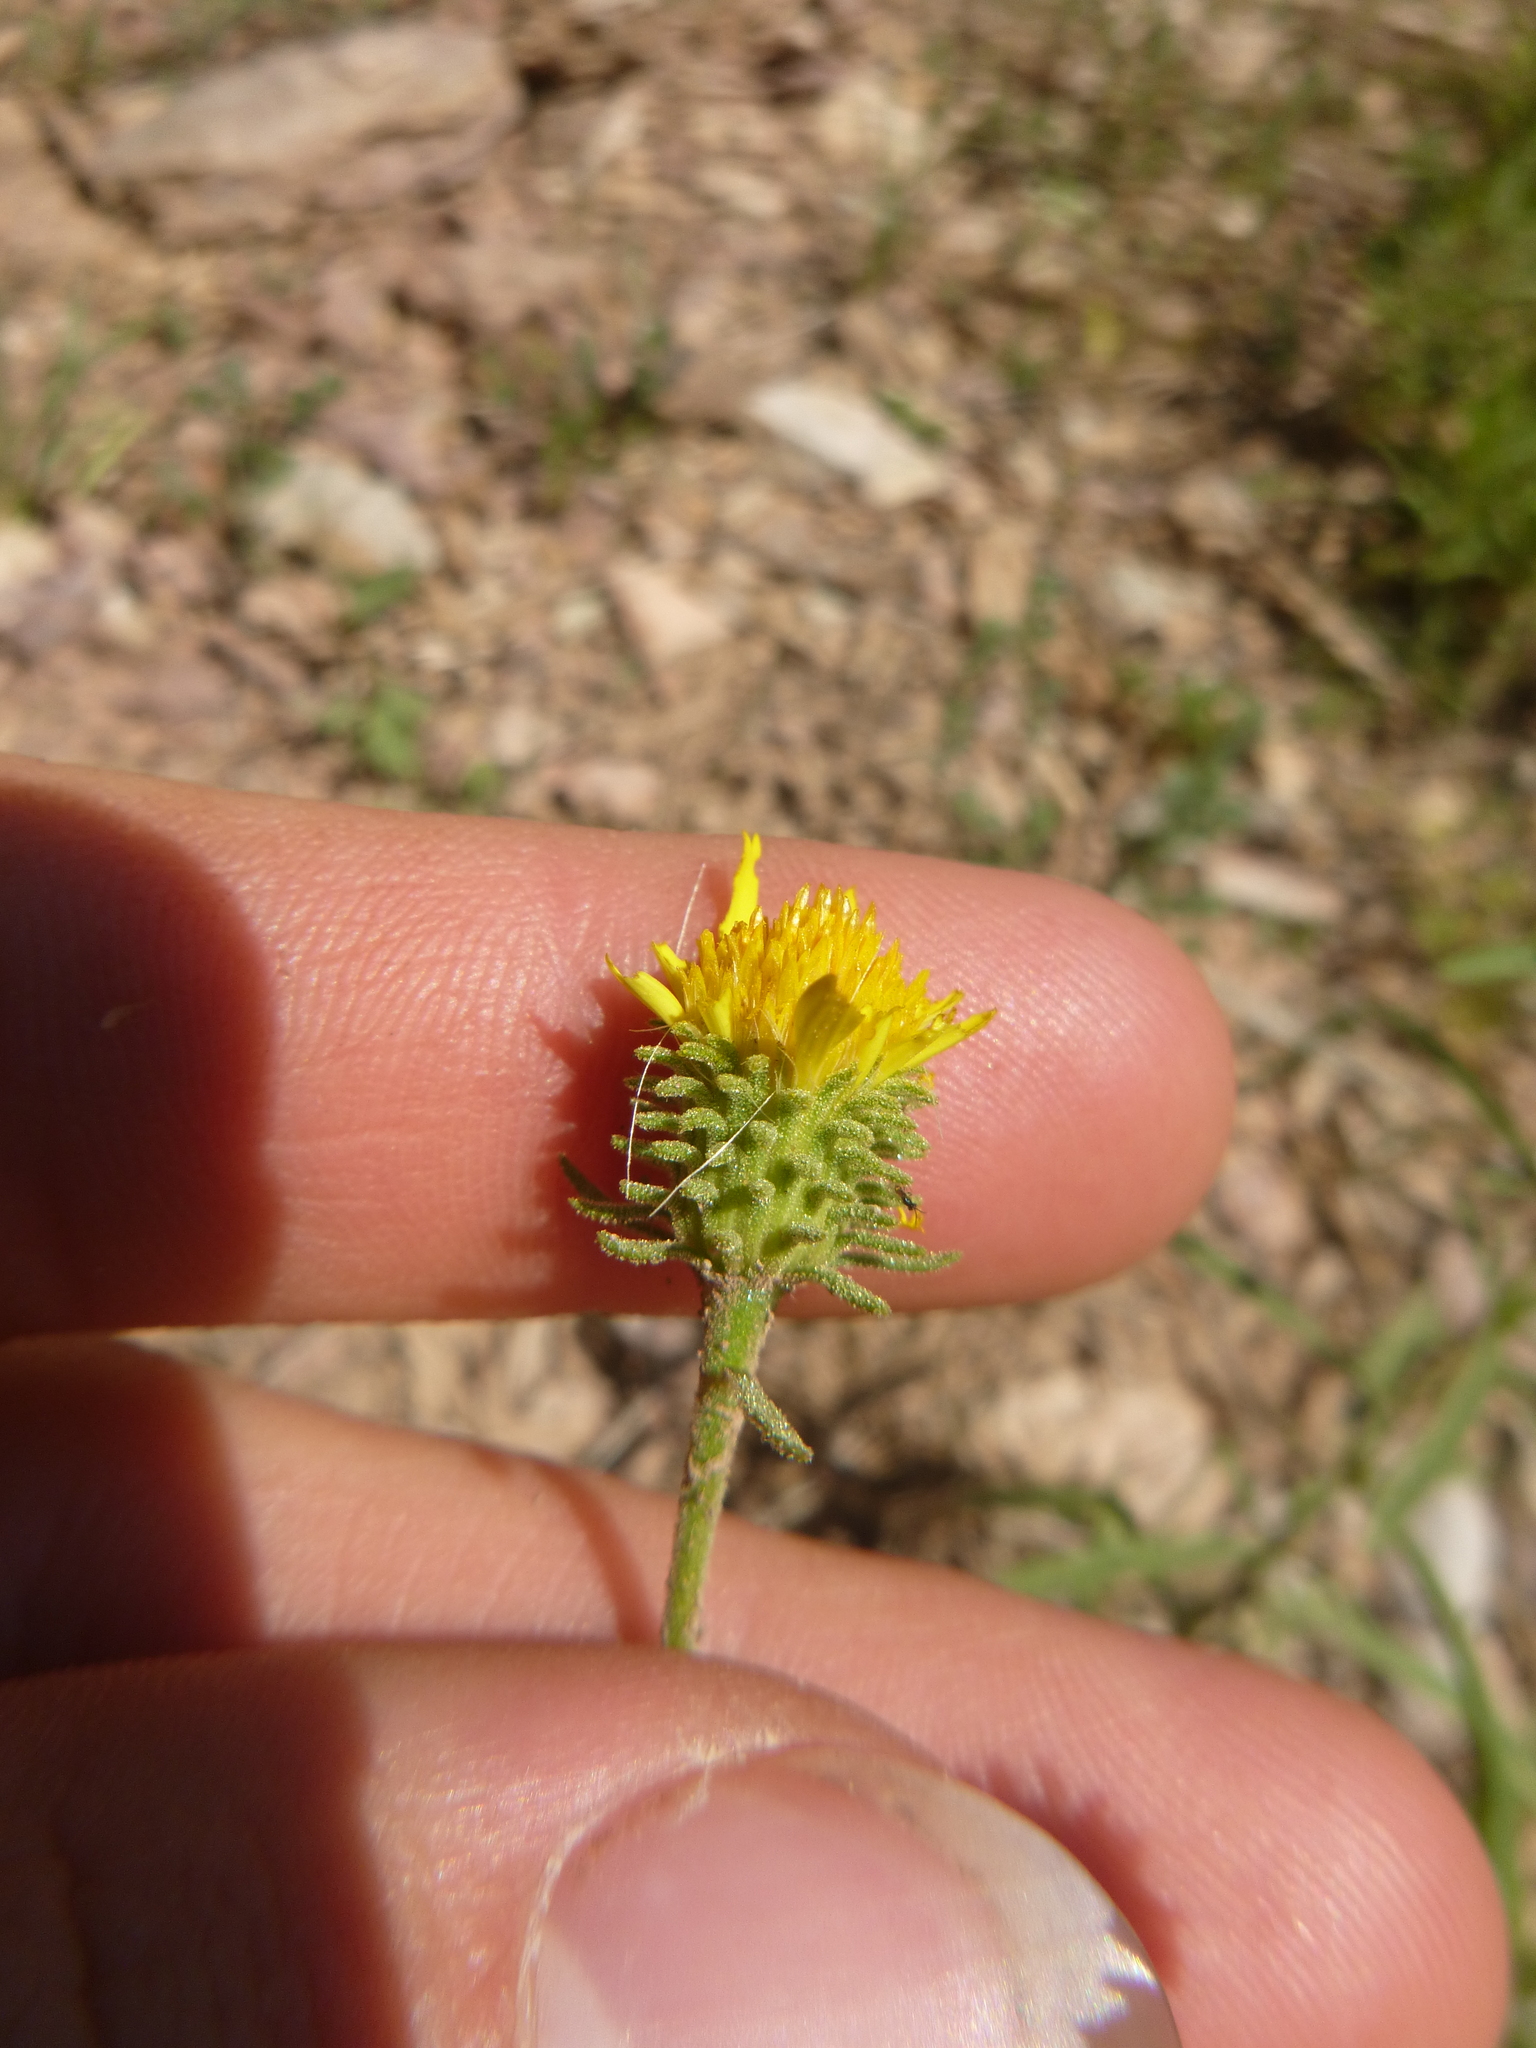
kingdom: Plantae
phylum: Tracheophyta
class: Magnoliopsida
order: Asterales
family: Asteraceae
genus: Jasonia
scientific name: Jasonia tuberosa
